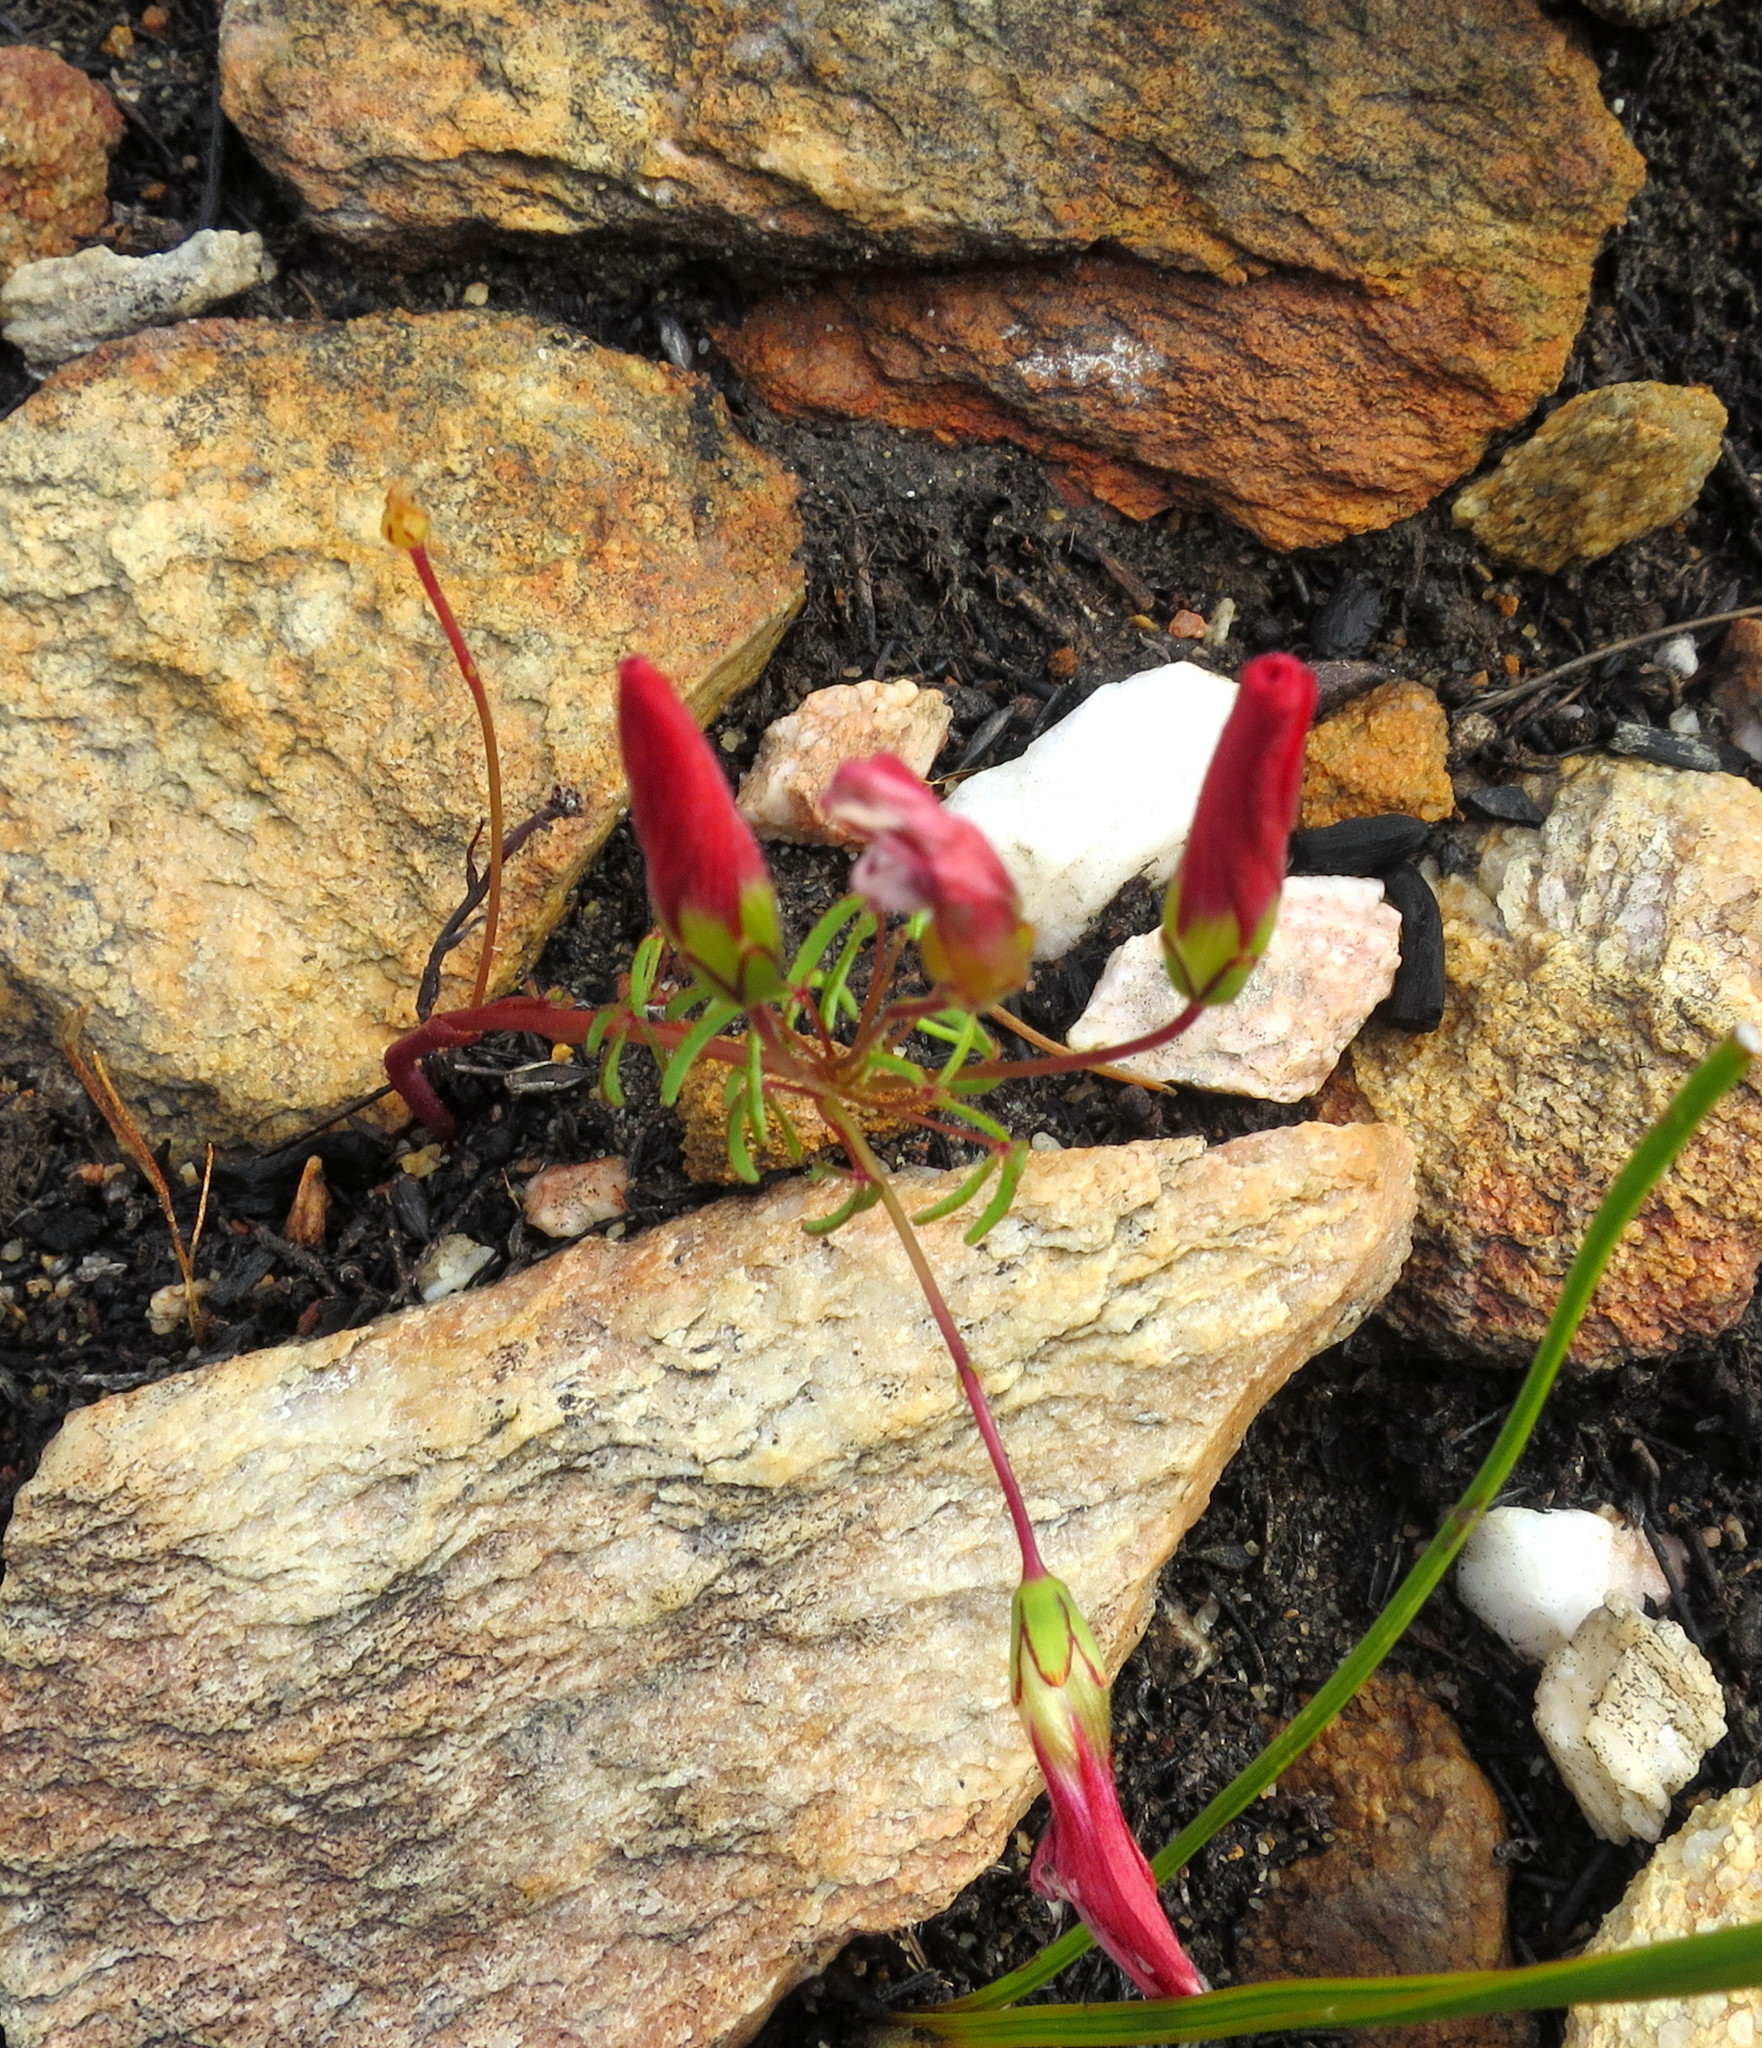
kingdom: Plantae
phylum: Tracheophyta
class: Magnoliopsida
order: Oxalidales
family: Oxalidaceae
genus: Oxalis
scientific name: Oxalis pendulifolia
